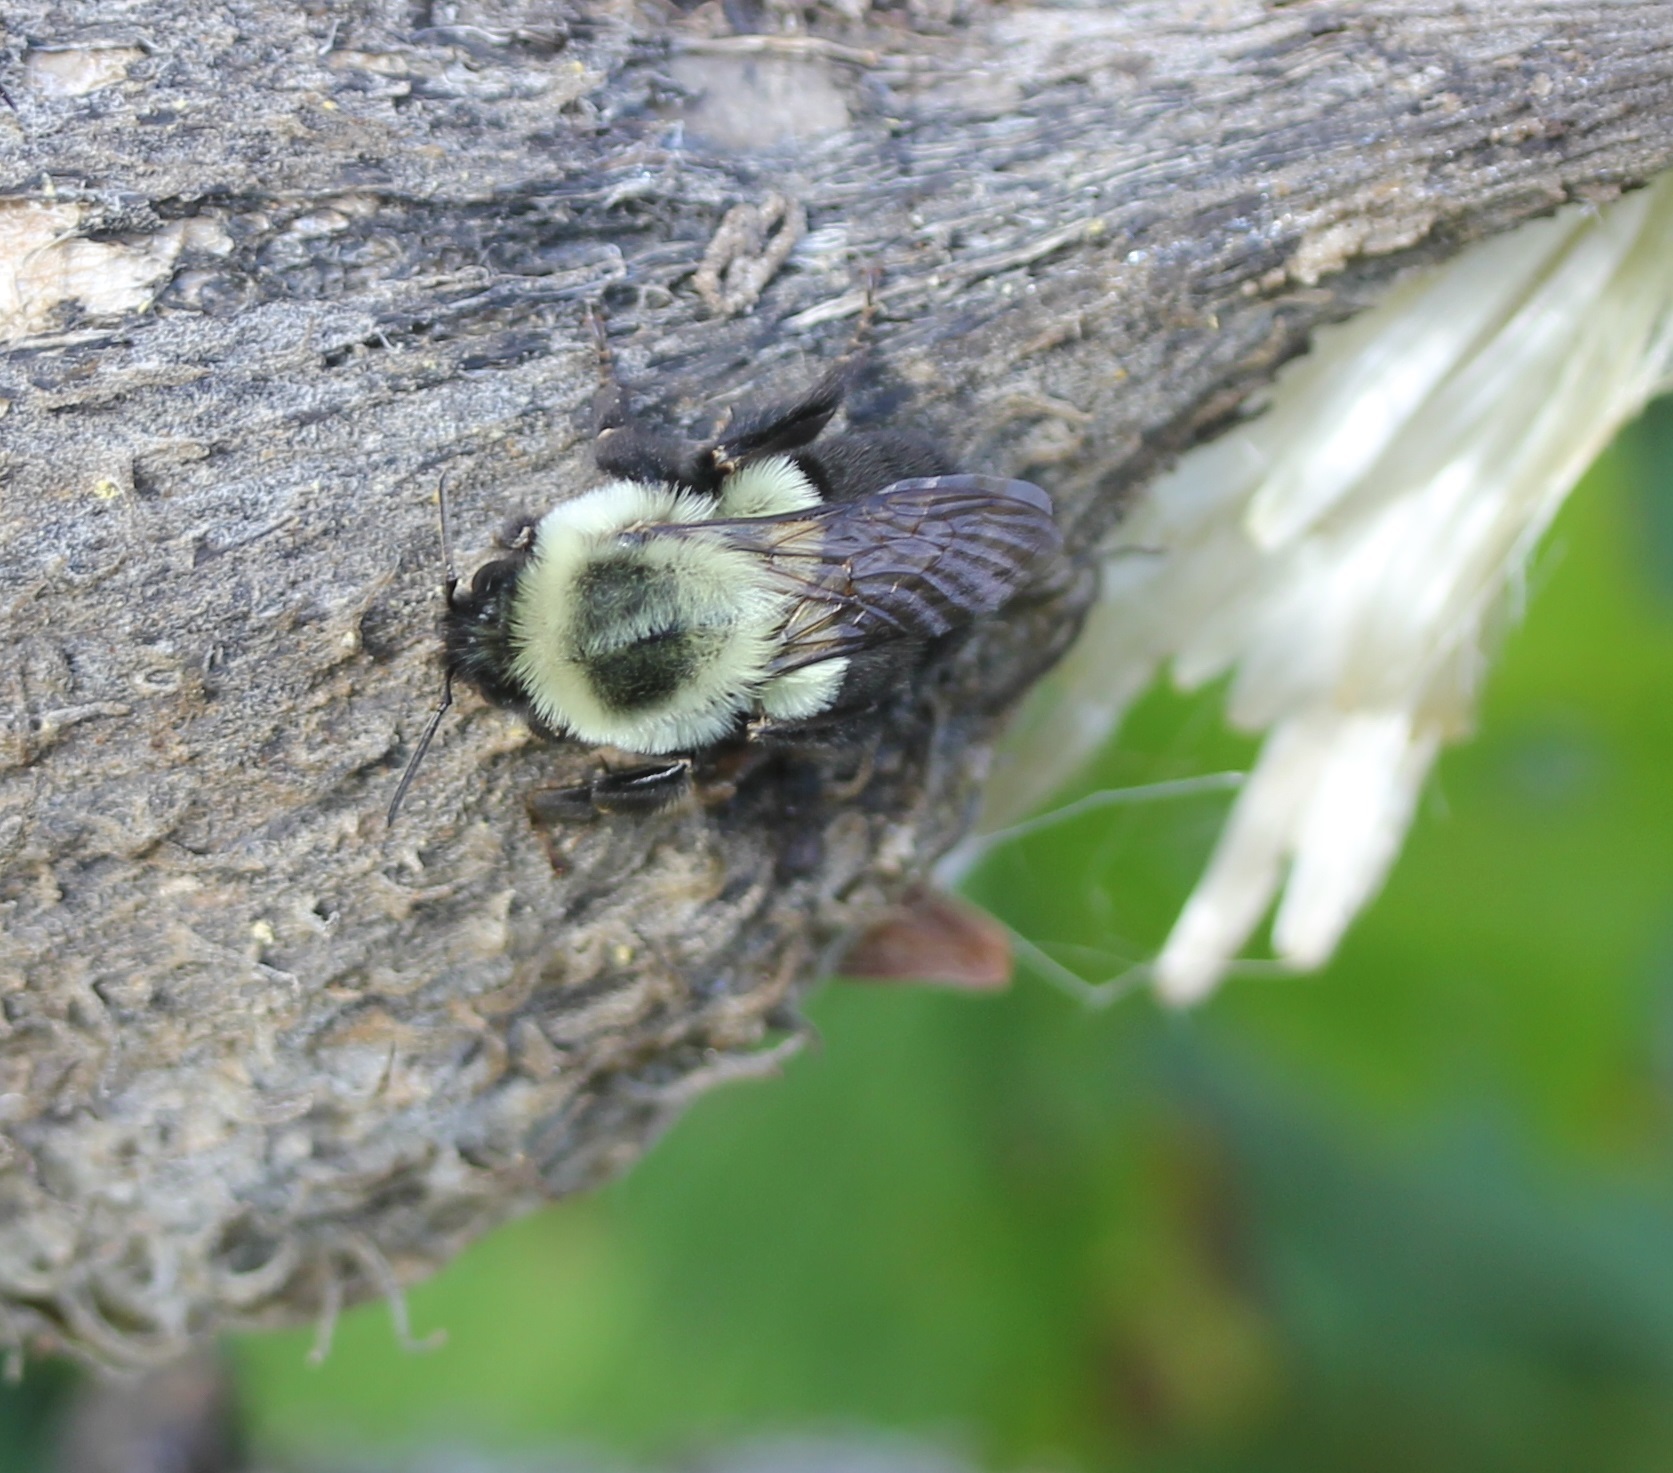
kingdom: Animalia
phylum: Arthropoda
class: Insecta
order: Hymenoptera
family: Apidae
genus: Bombus
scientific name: Bombus impatiens
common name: Common eastern bumble bee
